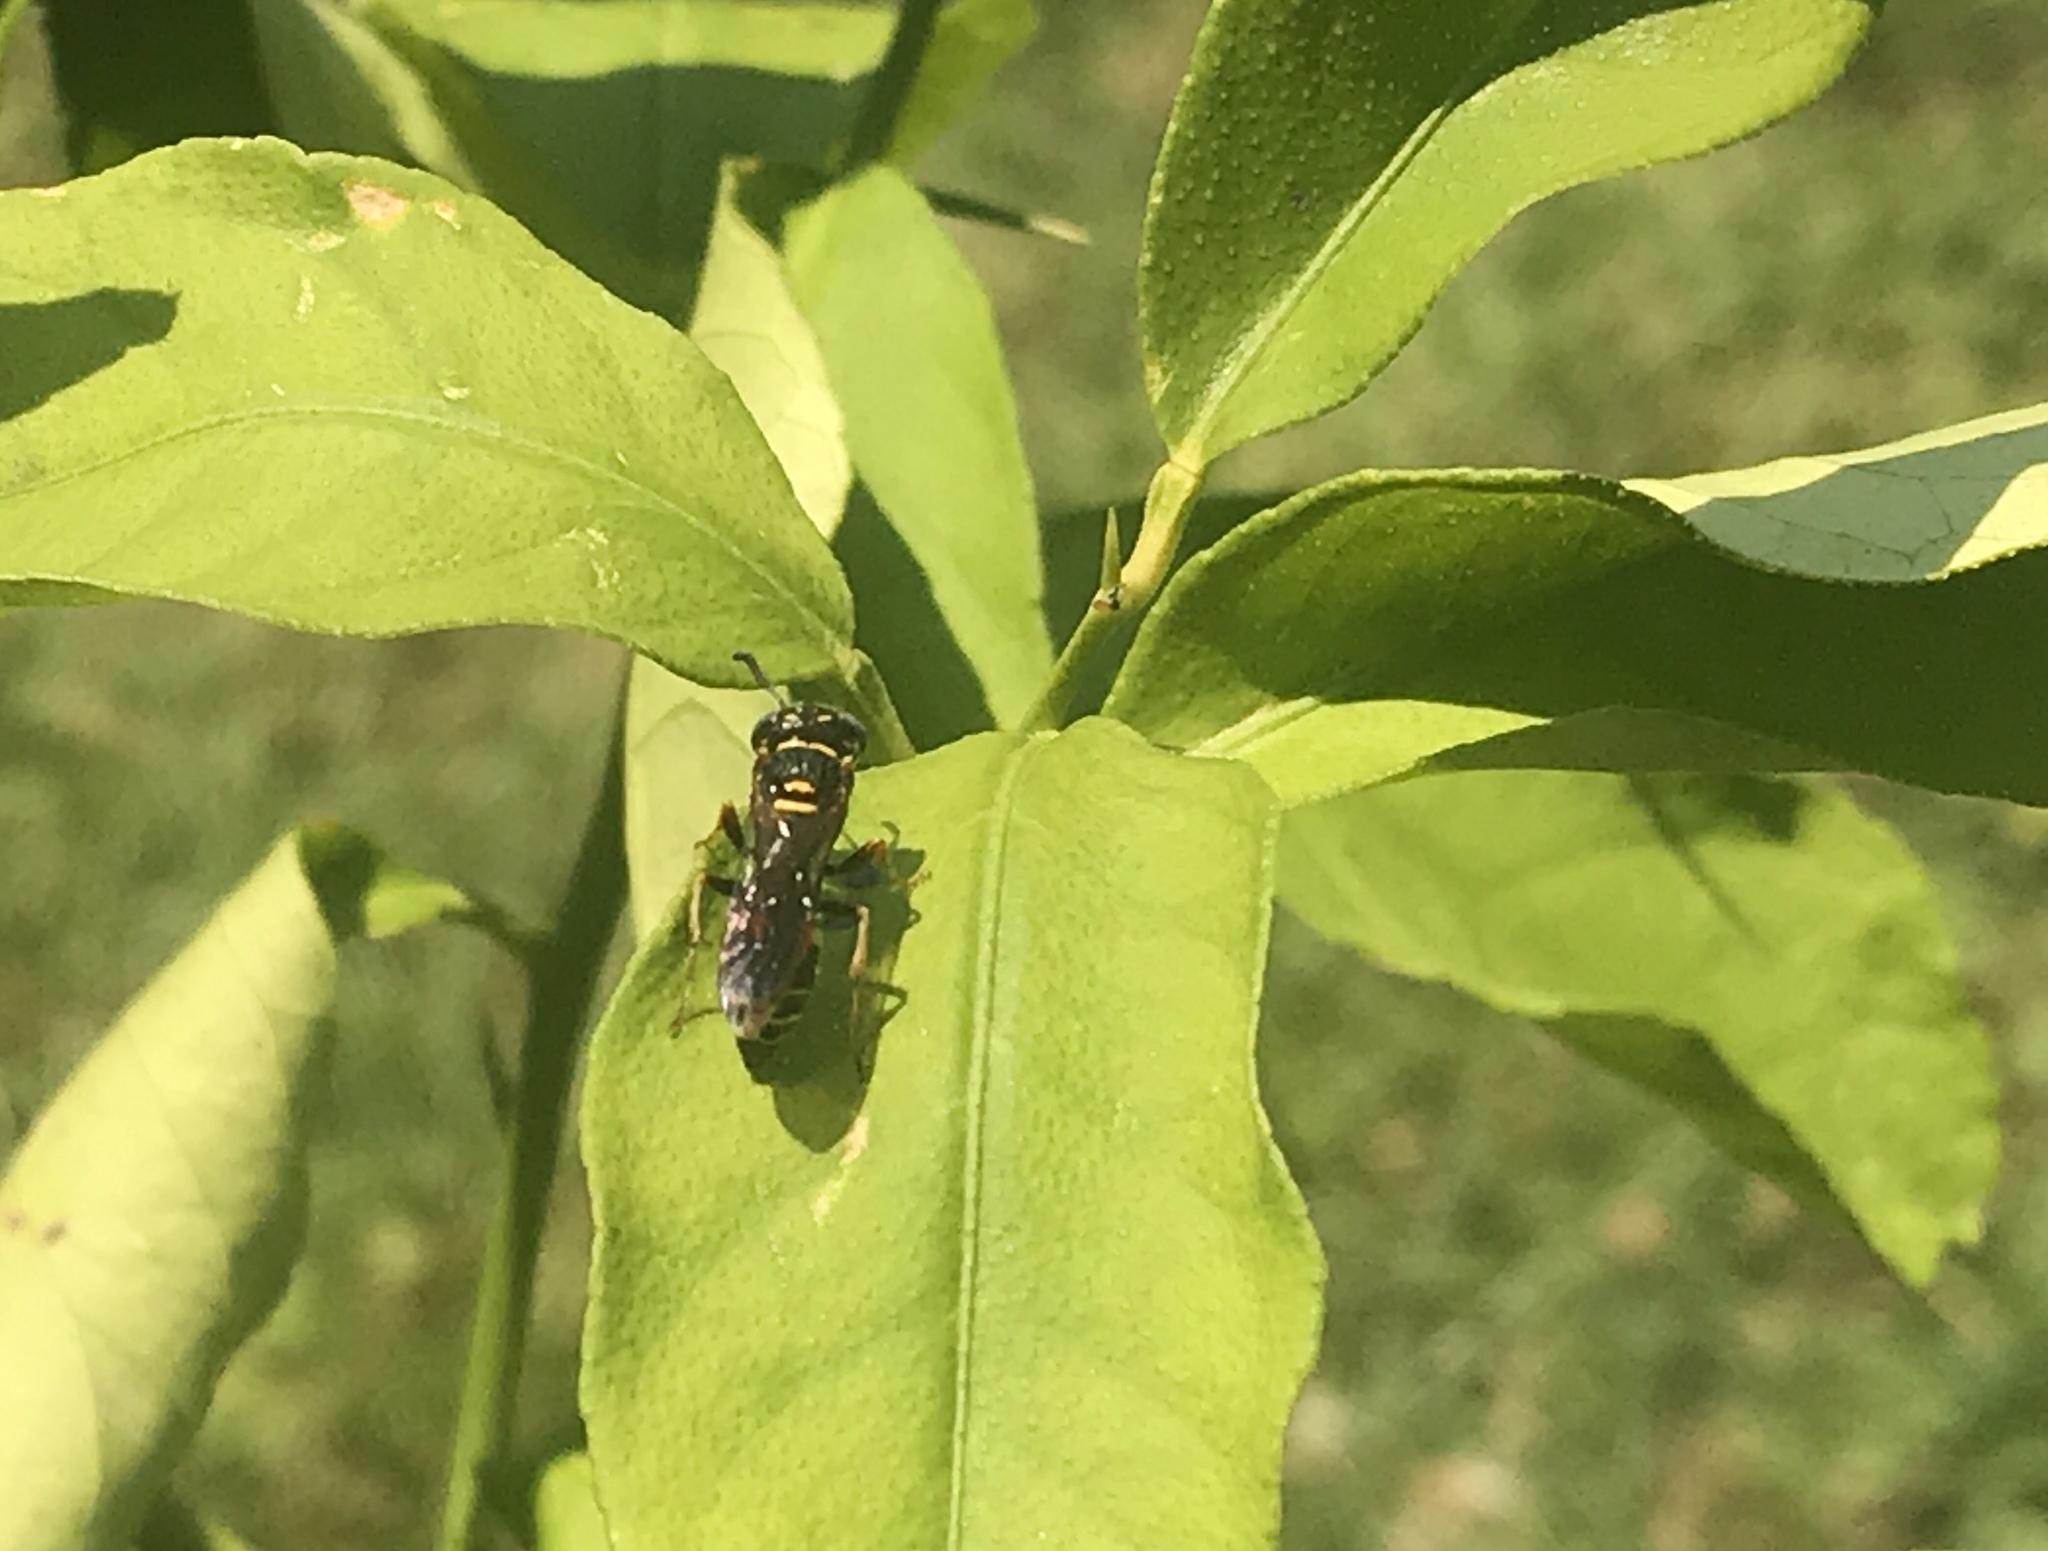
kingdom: Animalia
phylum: Arthropoda
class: Insecta
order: Hymenoptera
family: Crabronidae
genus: Philanthus
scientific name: Philanthus gibbosus
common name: Humped beewolf
